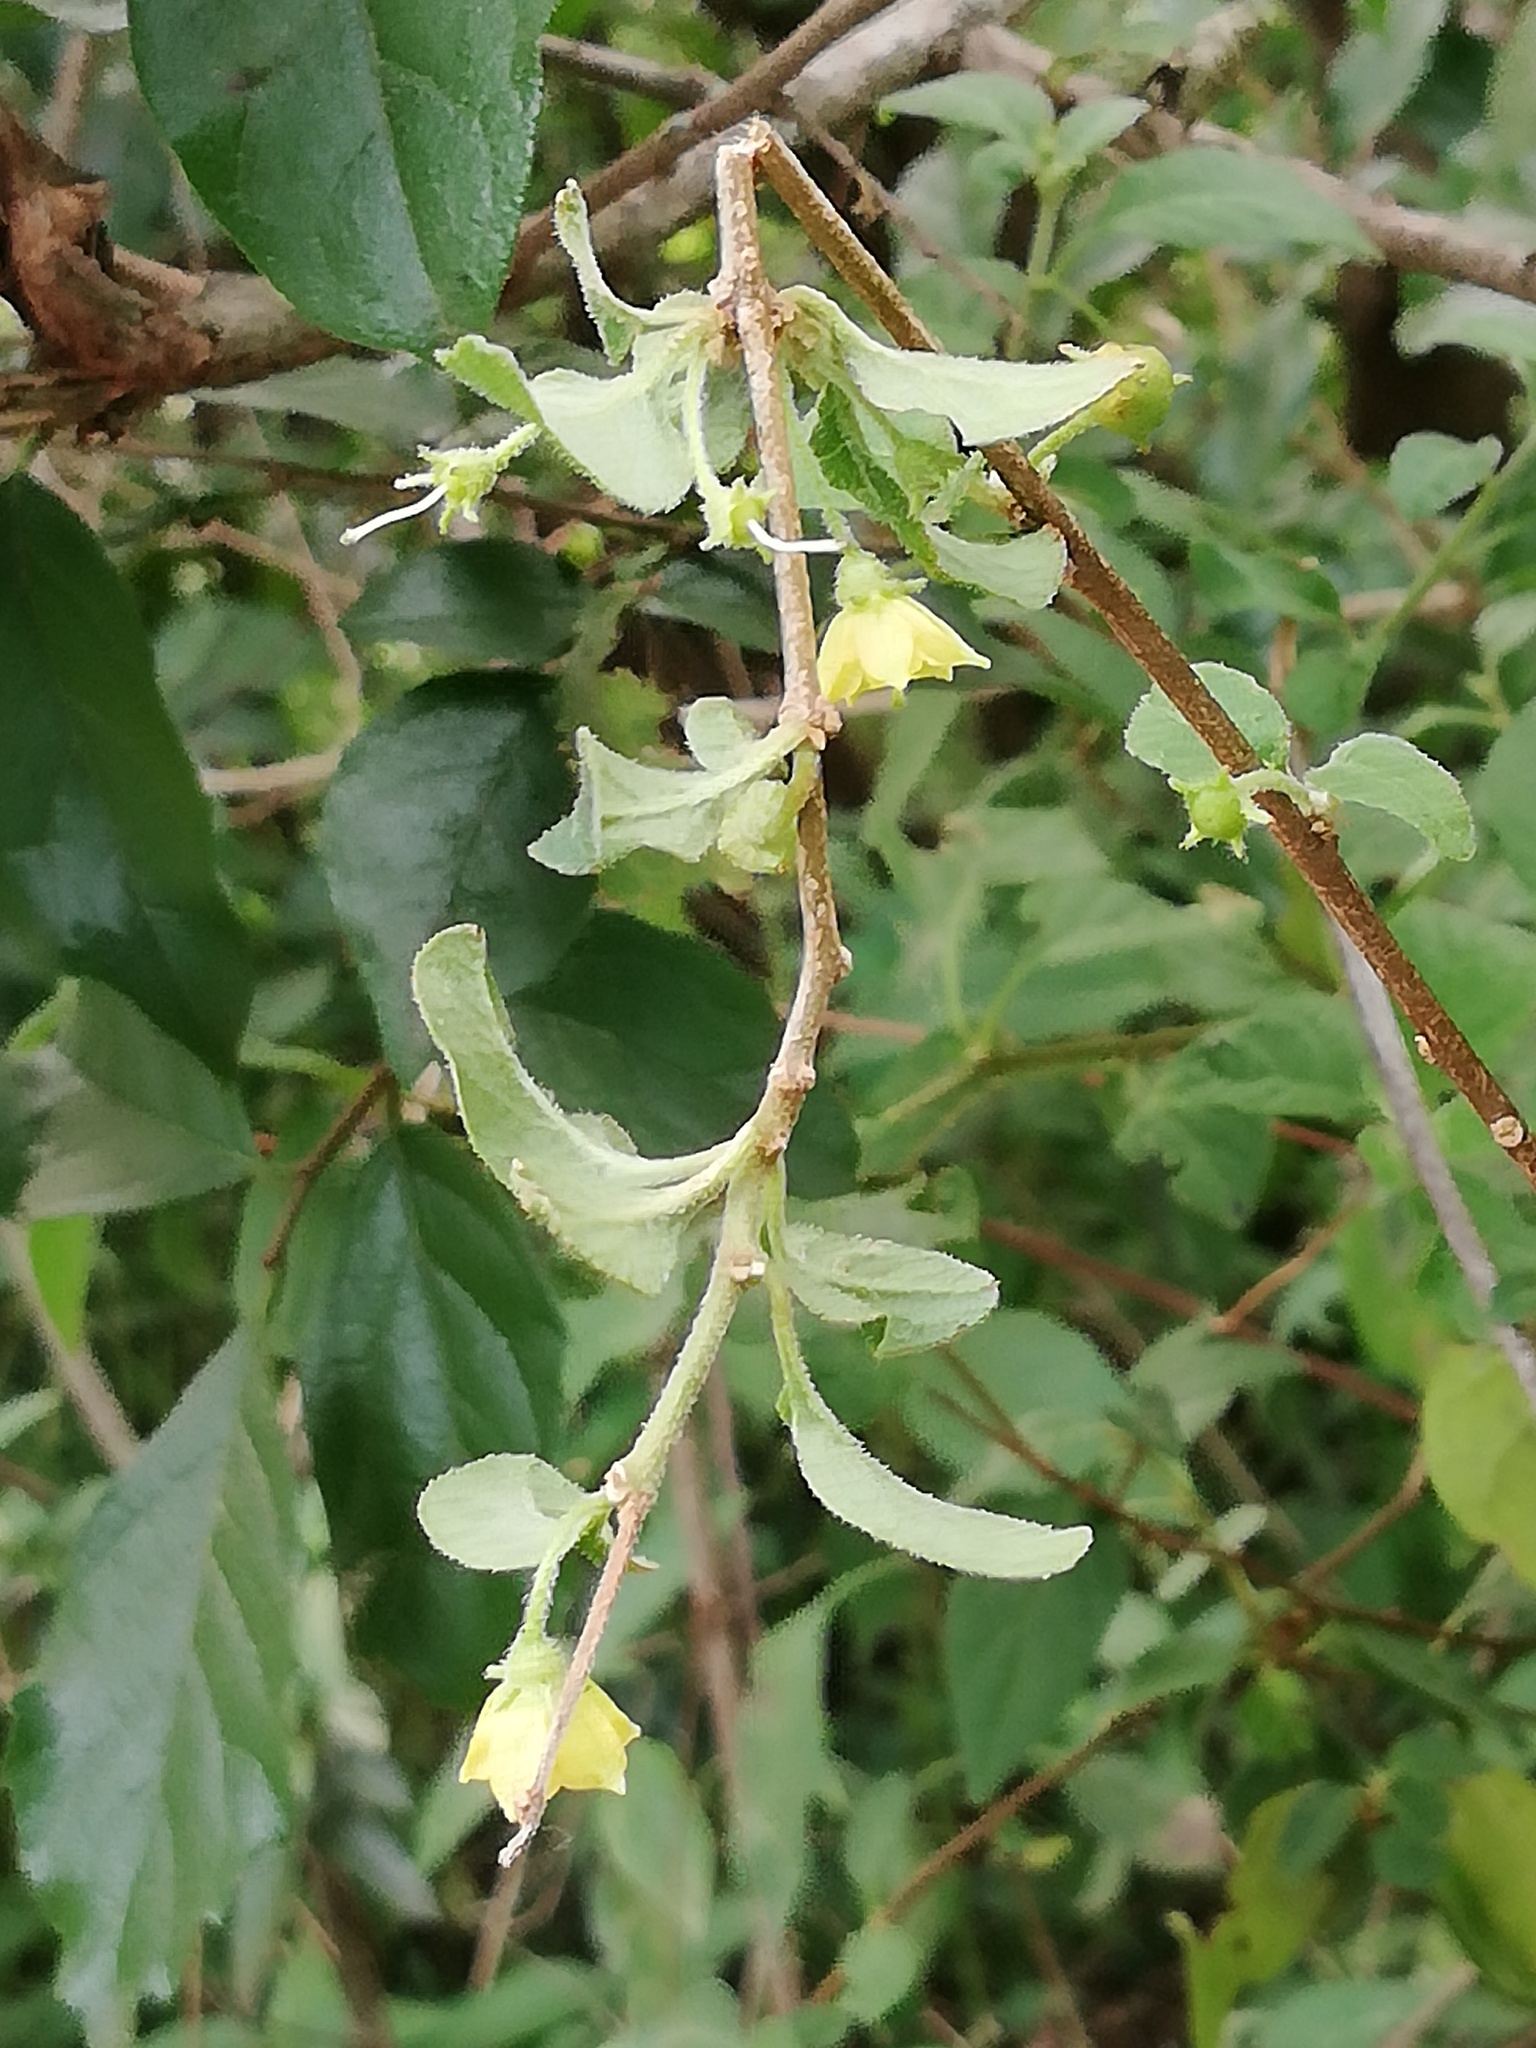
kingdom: Plantae
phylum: Tracheophyta
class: Magnoliopsida
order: Solanales
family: Solanaceae
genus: Capsicum
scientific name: Capsicum rhomboideum
